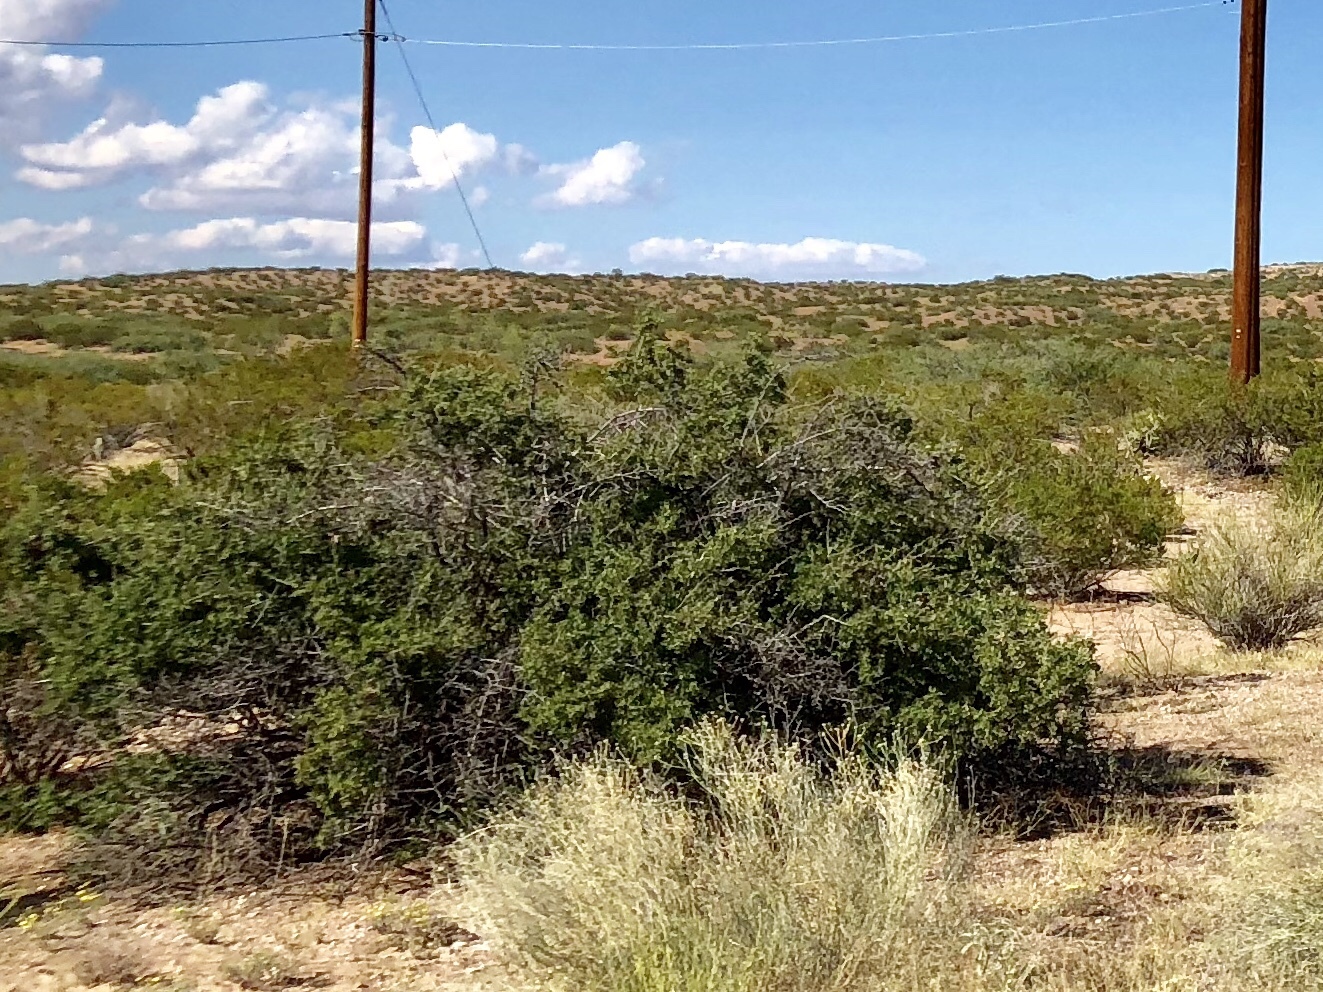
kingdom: Plantae
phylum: Tracheophyta
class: Magnoliopsida
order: Zygophyllales
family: Zygophyllaceae
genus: Larrea
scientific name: Larrea tridentata
